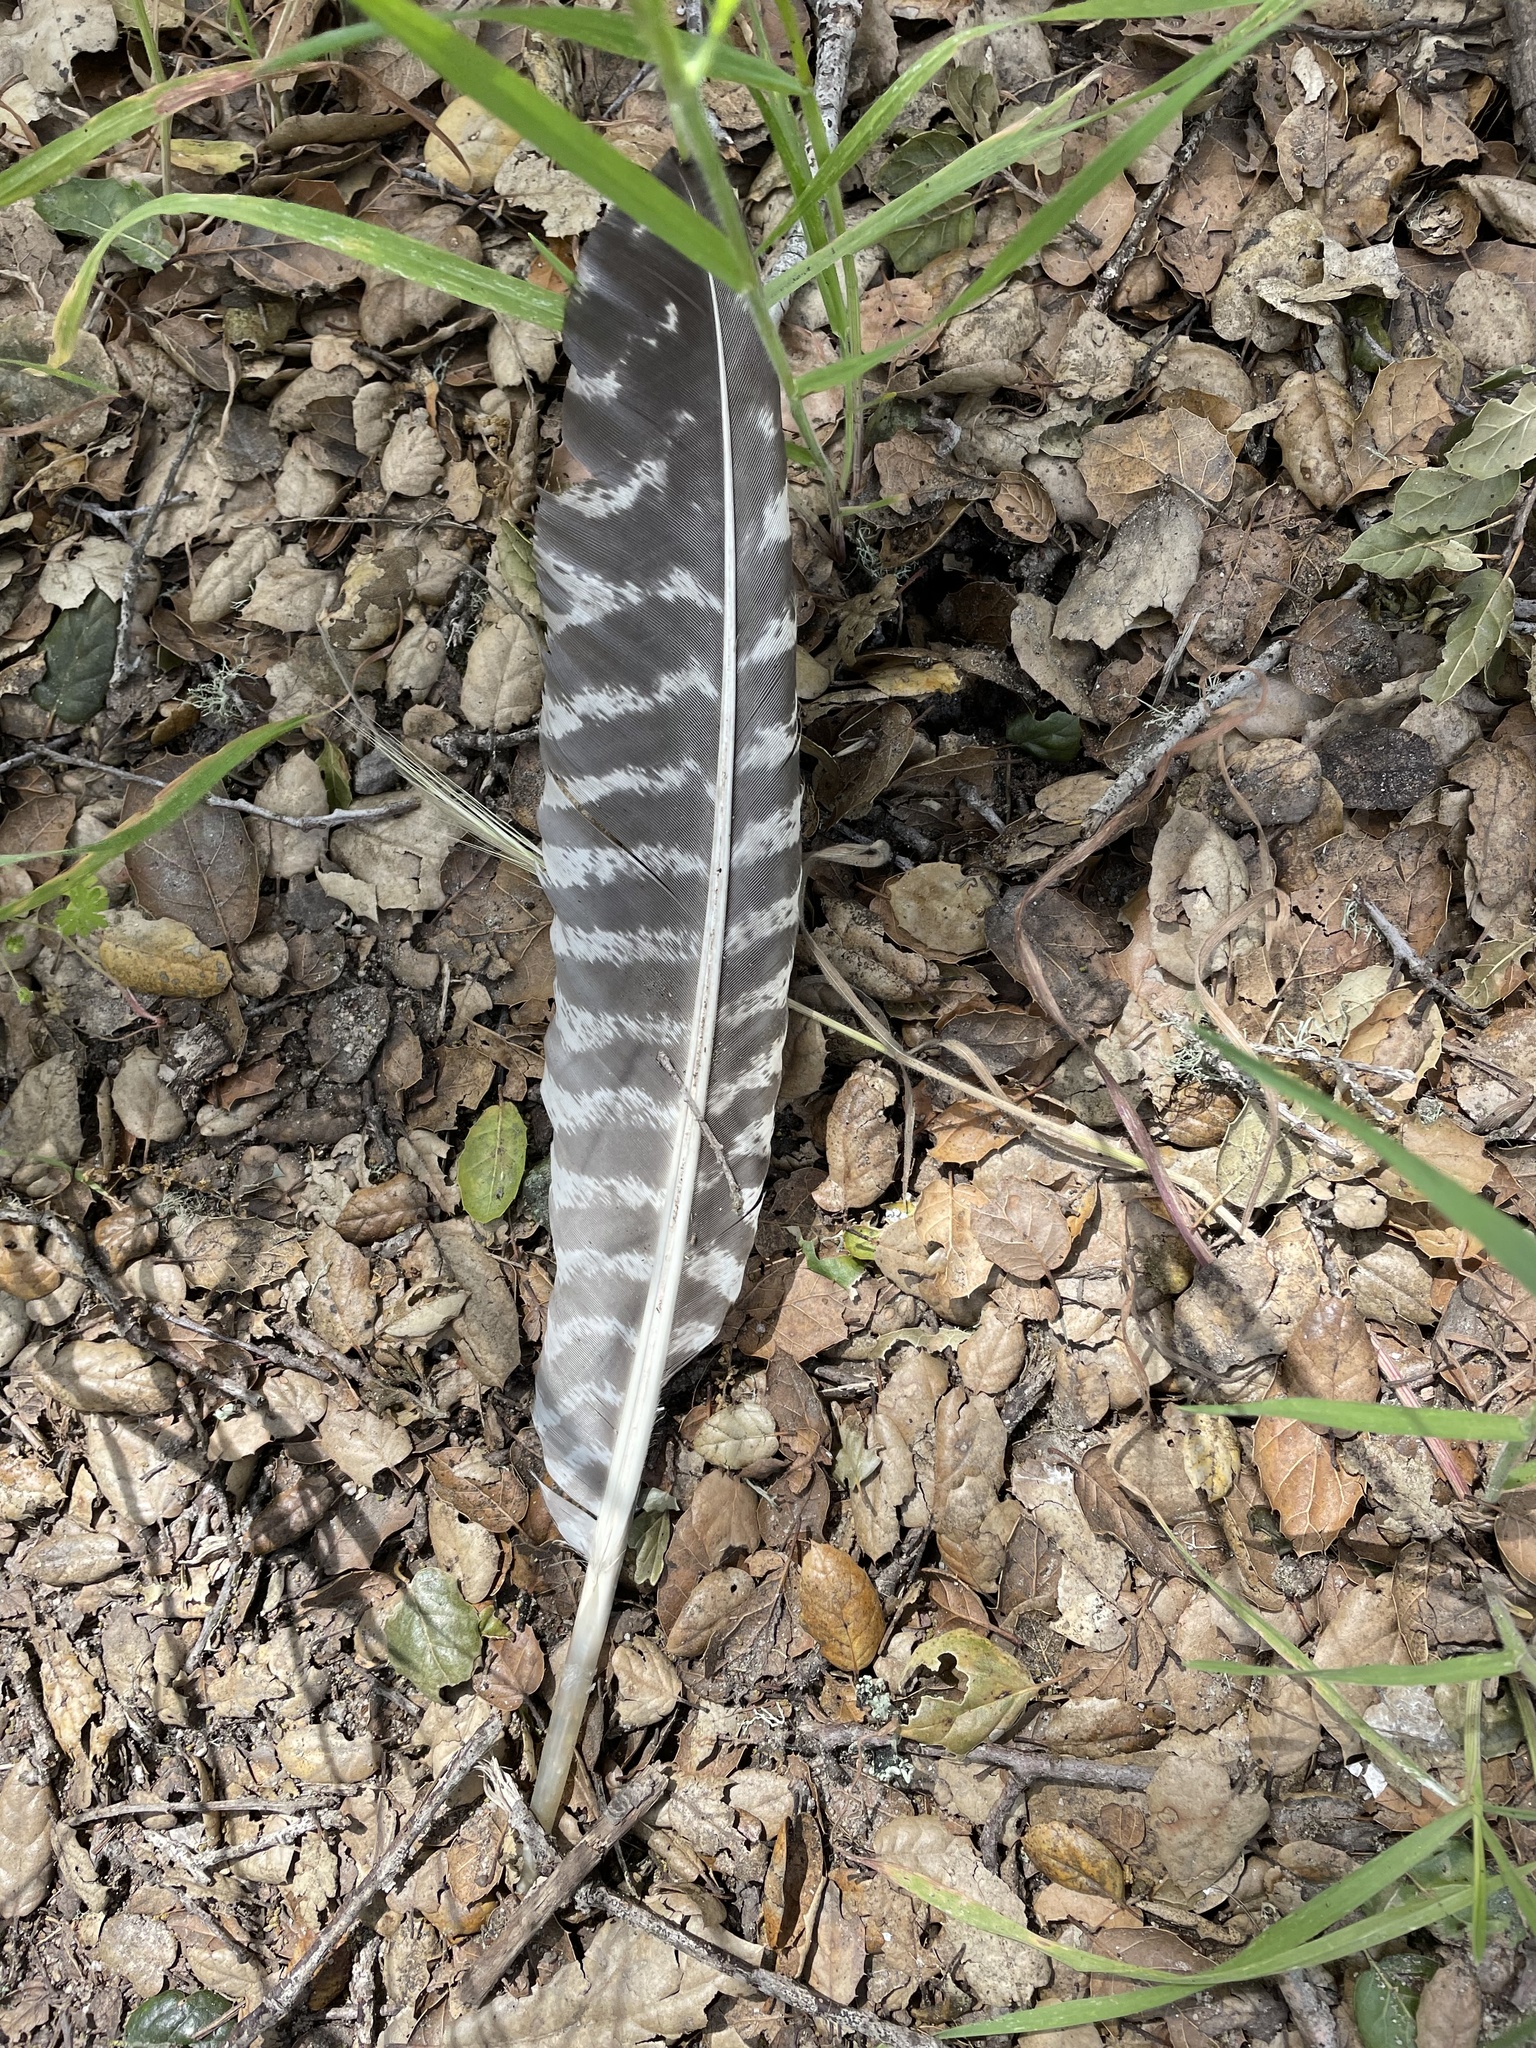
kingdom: Animalia
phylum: Chordata
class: Aves
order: Galliformes
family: Phasianidae
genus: Meleagris
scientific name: Meleagris gallopavo
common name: Wild turkey
